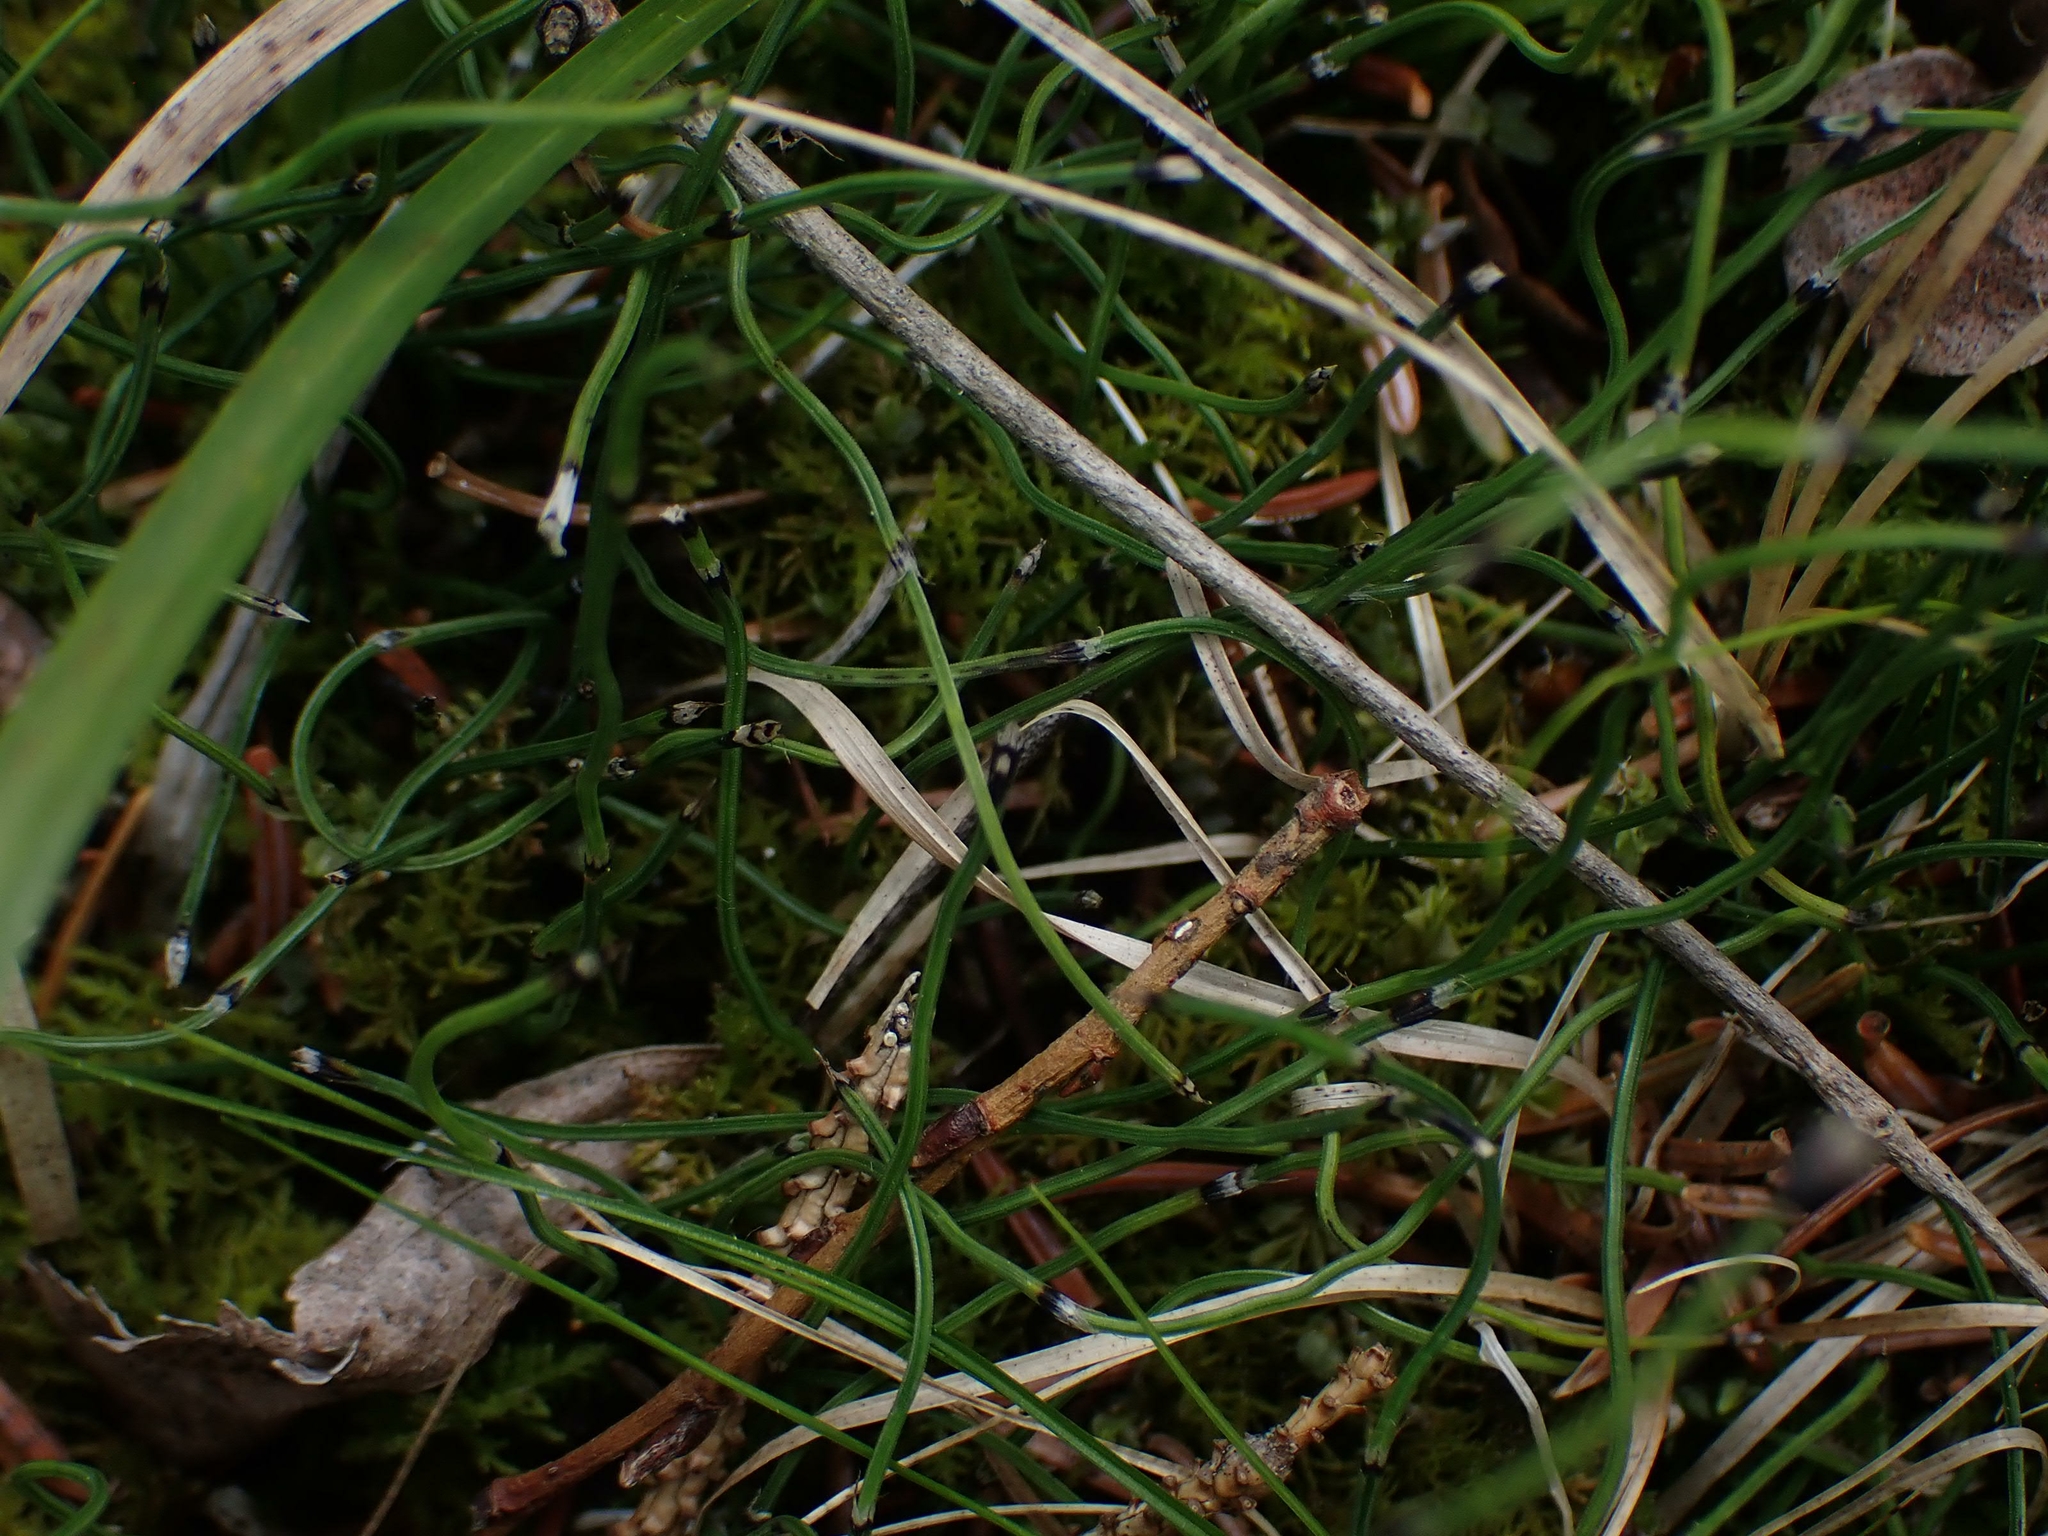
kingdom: Plantae
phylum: Tracheophyta
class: Polypodiopsida
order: Equisetales
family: Equisetaceae
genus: Equisetum
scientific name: Equisetum scirpoides
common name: Delicate horsetail
